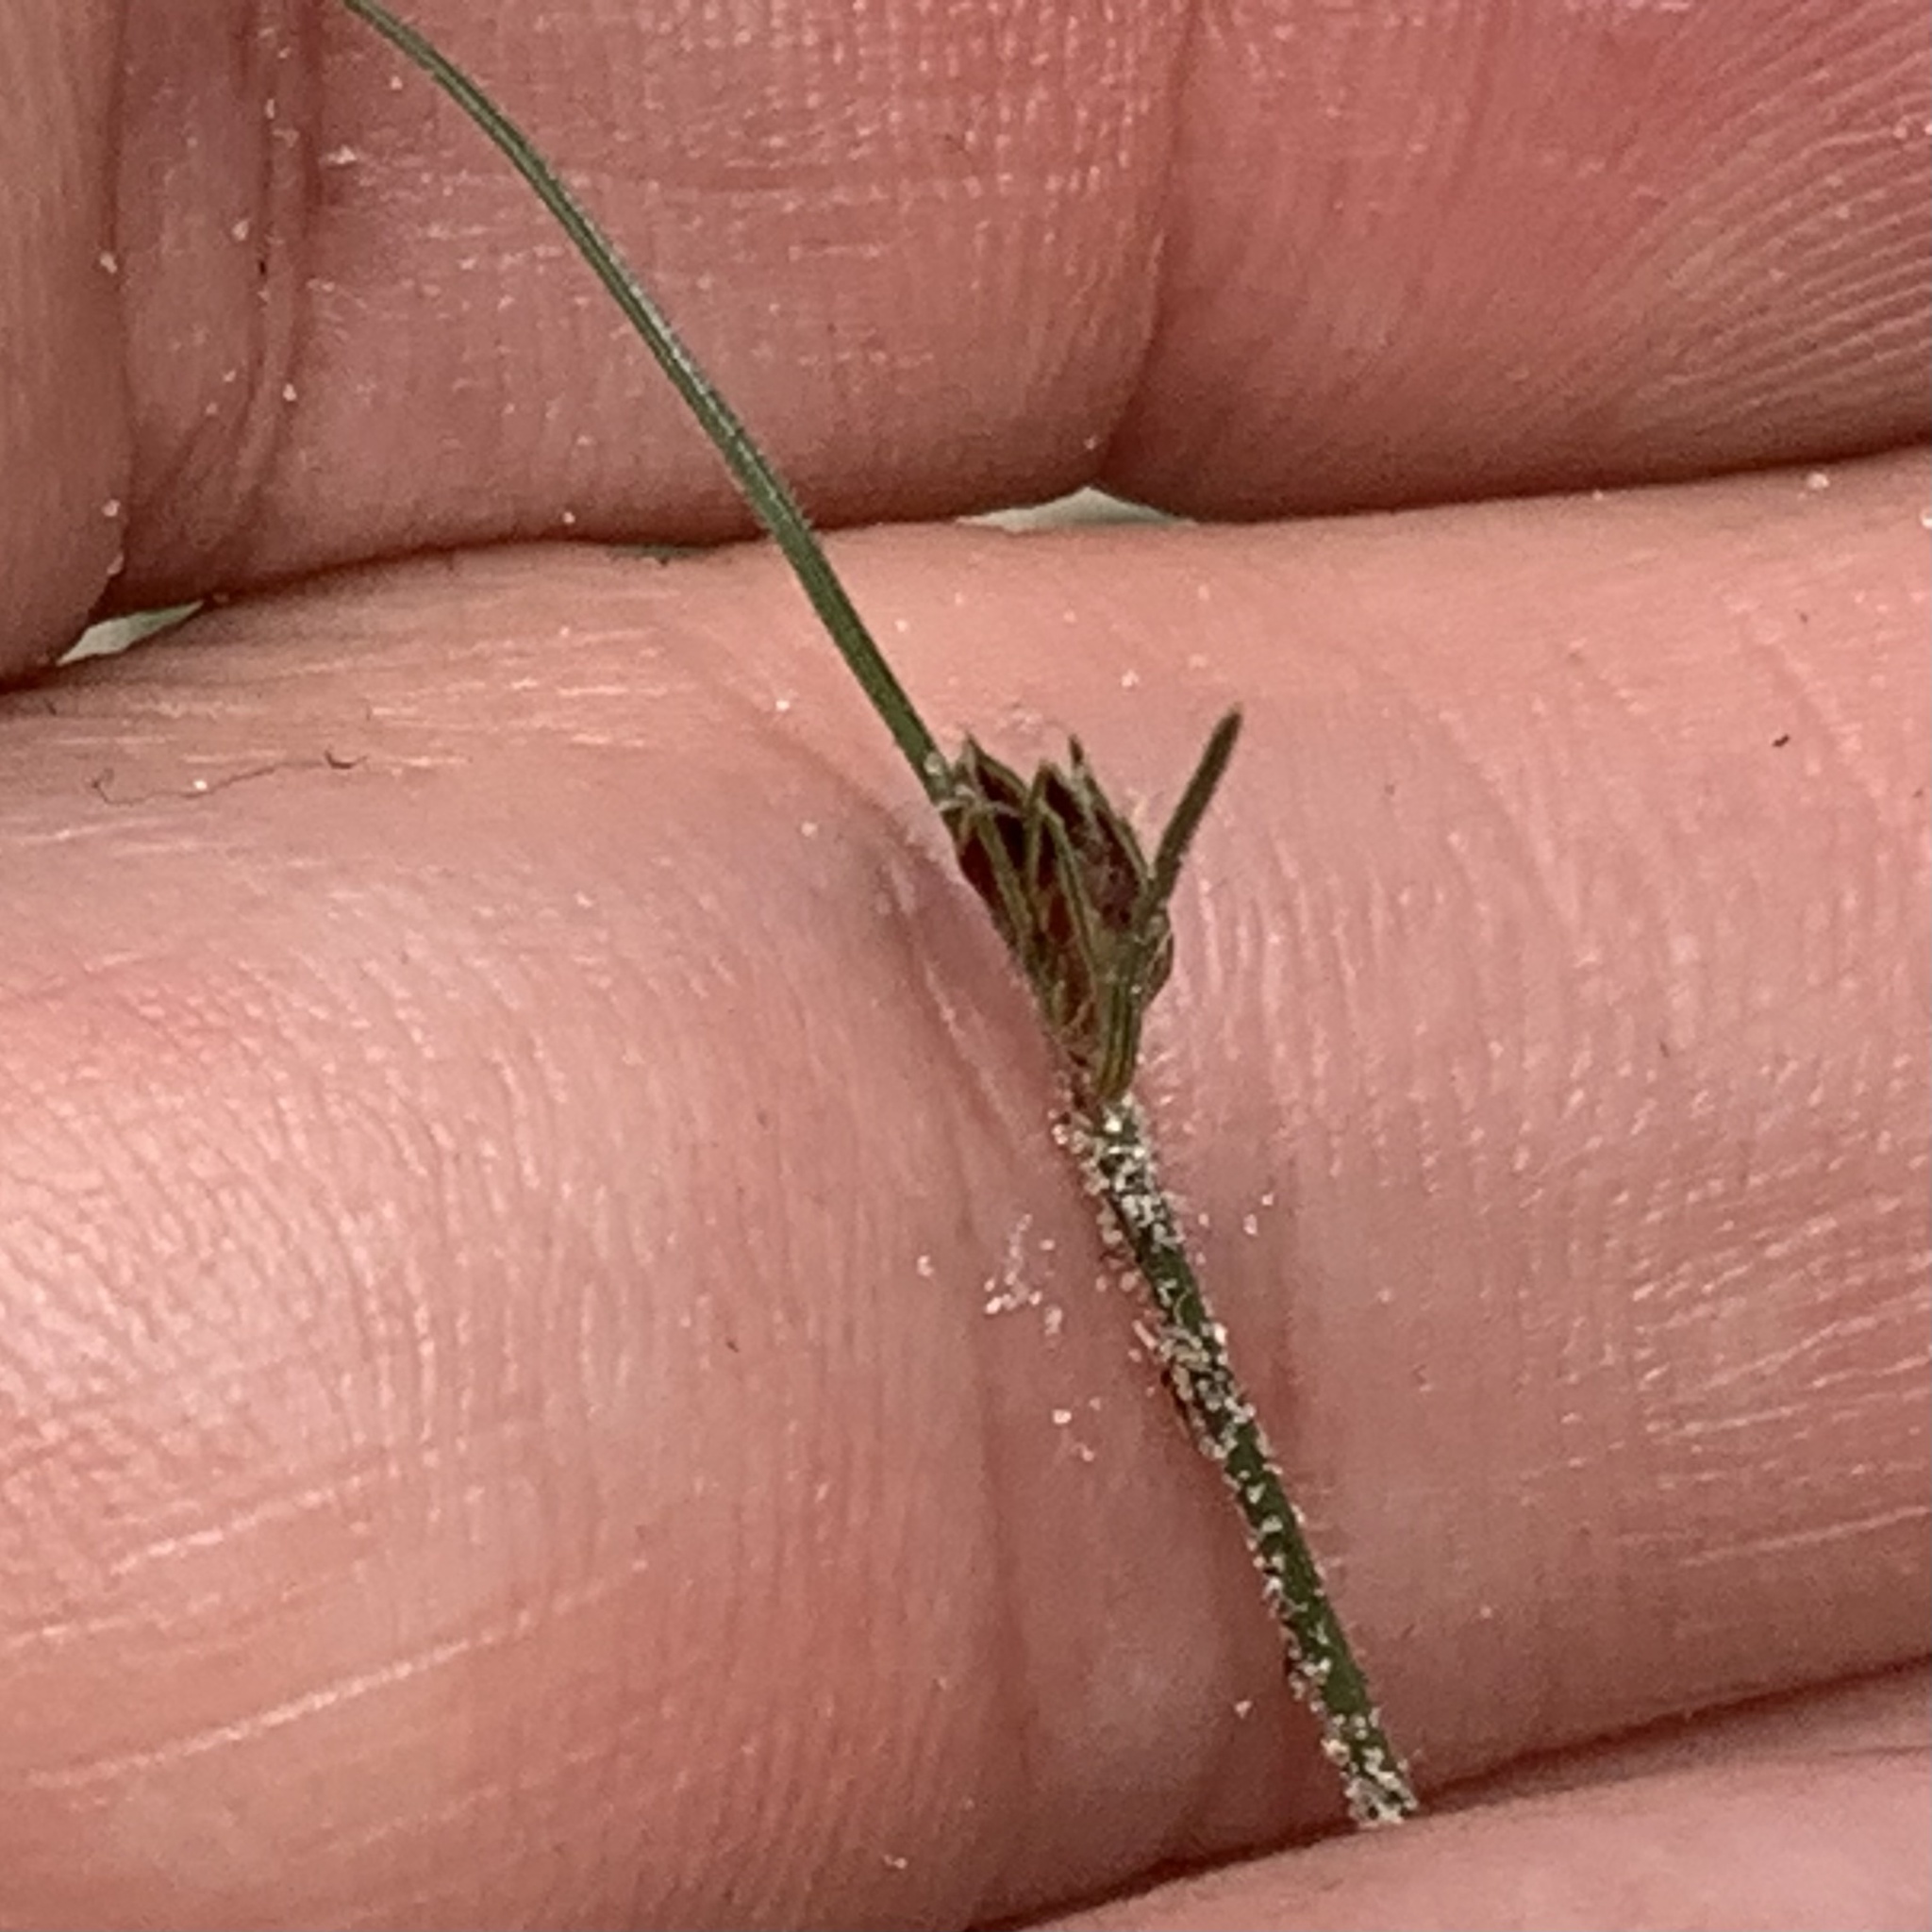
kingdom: Plantae
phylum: Tracheophyta
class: Liliopsida
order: Poales
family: Cyperaceae
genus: Bulbostylis
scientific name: Bulbostylis hispidula
